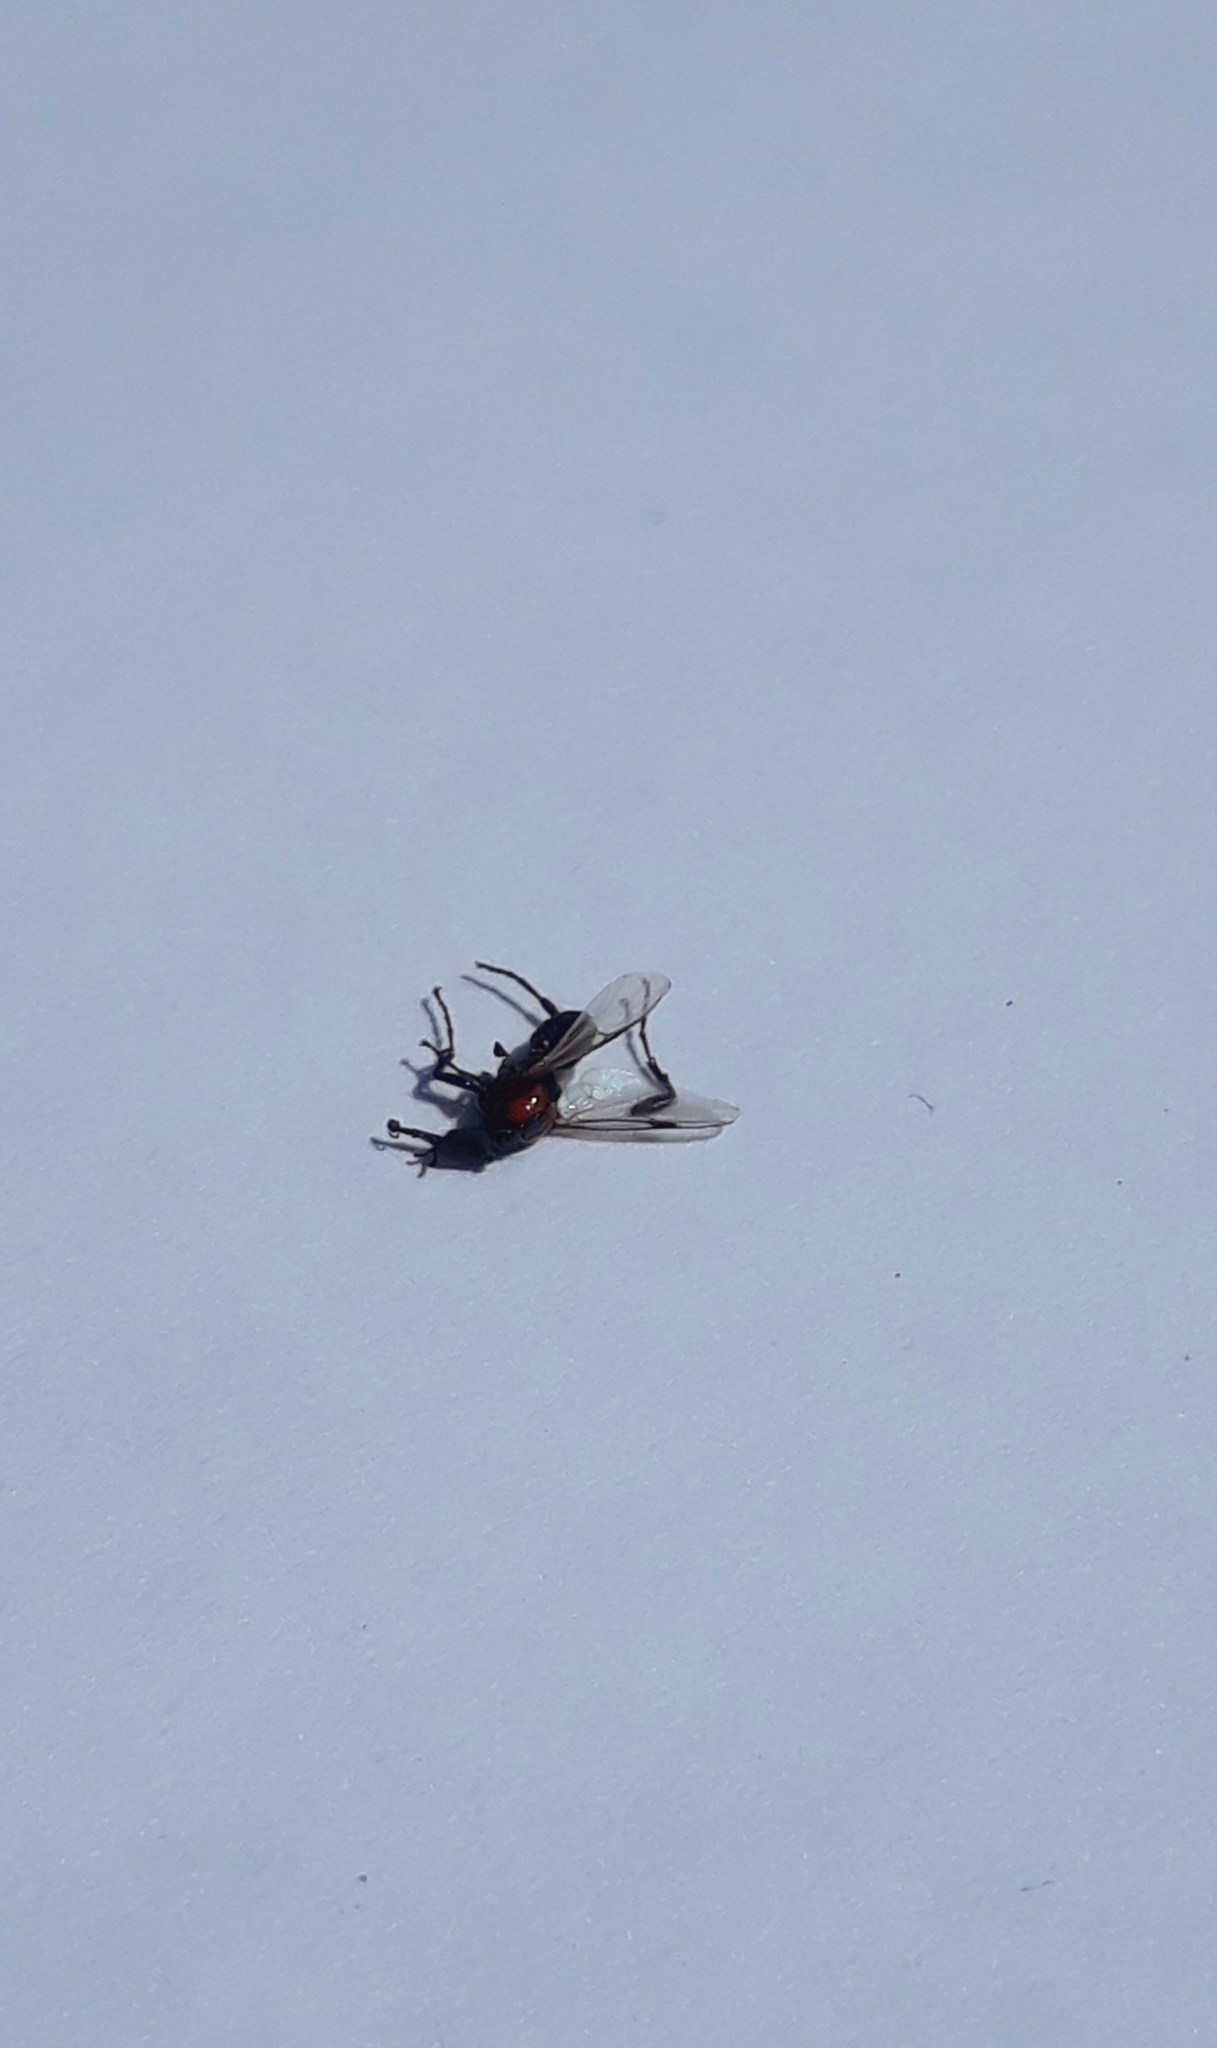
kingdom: Animalia
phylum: Arthropoda
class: Insecta
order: Diptera
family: Bibionidae
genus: Dilophus
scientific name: Dilophus pectoralis
